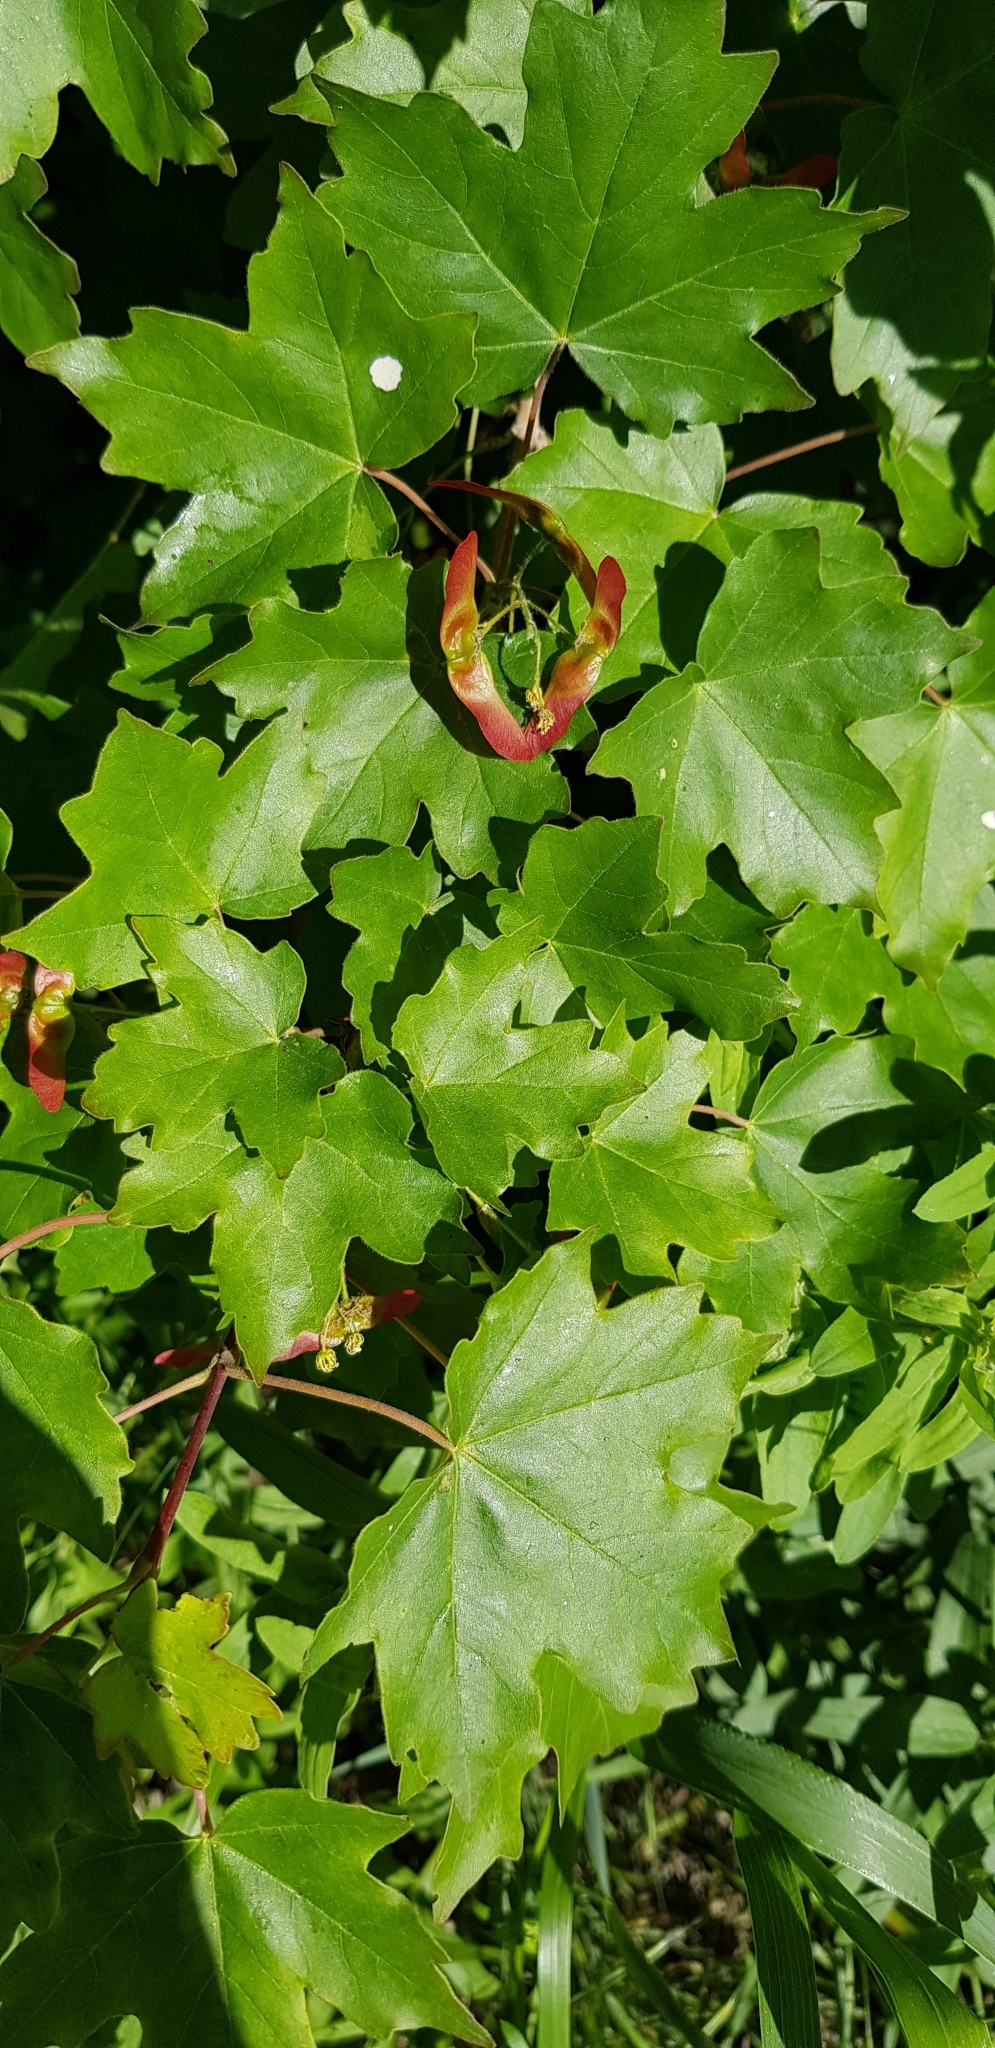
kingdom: Plantae
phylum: Tracheophyta
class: Magnoliopsida
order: Sapindales
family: Sapindaceae
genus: Acer
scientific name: Acer campestre
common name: Field maple
